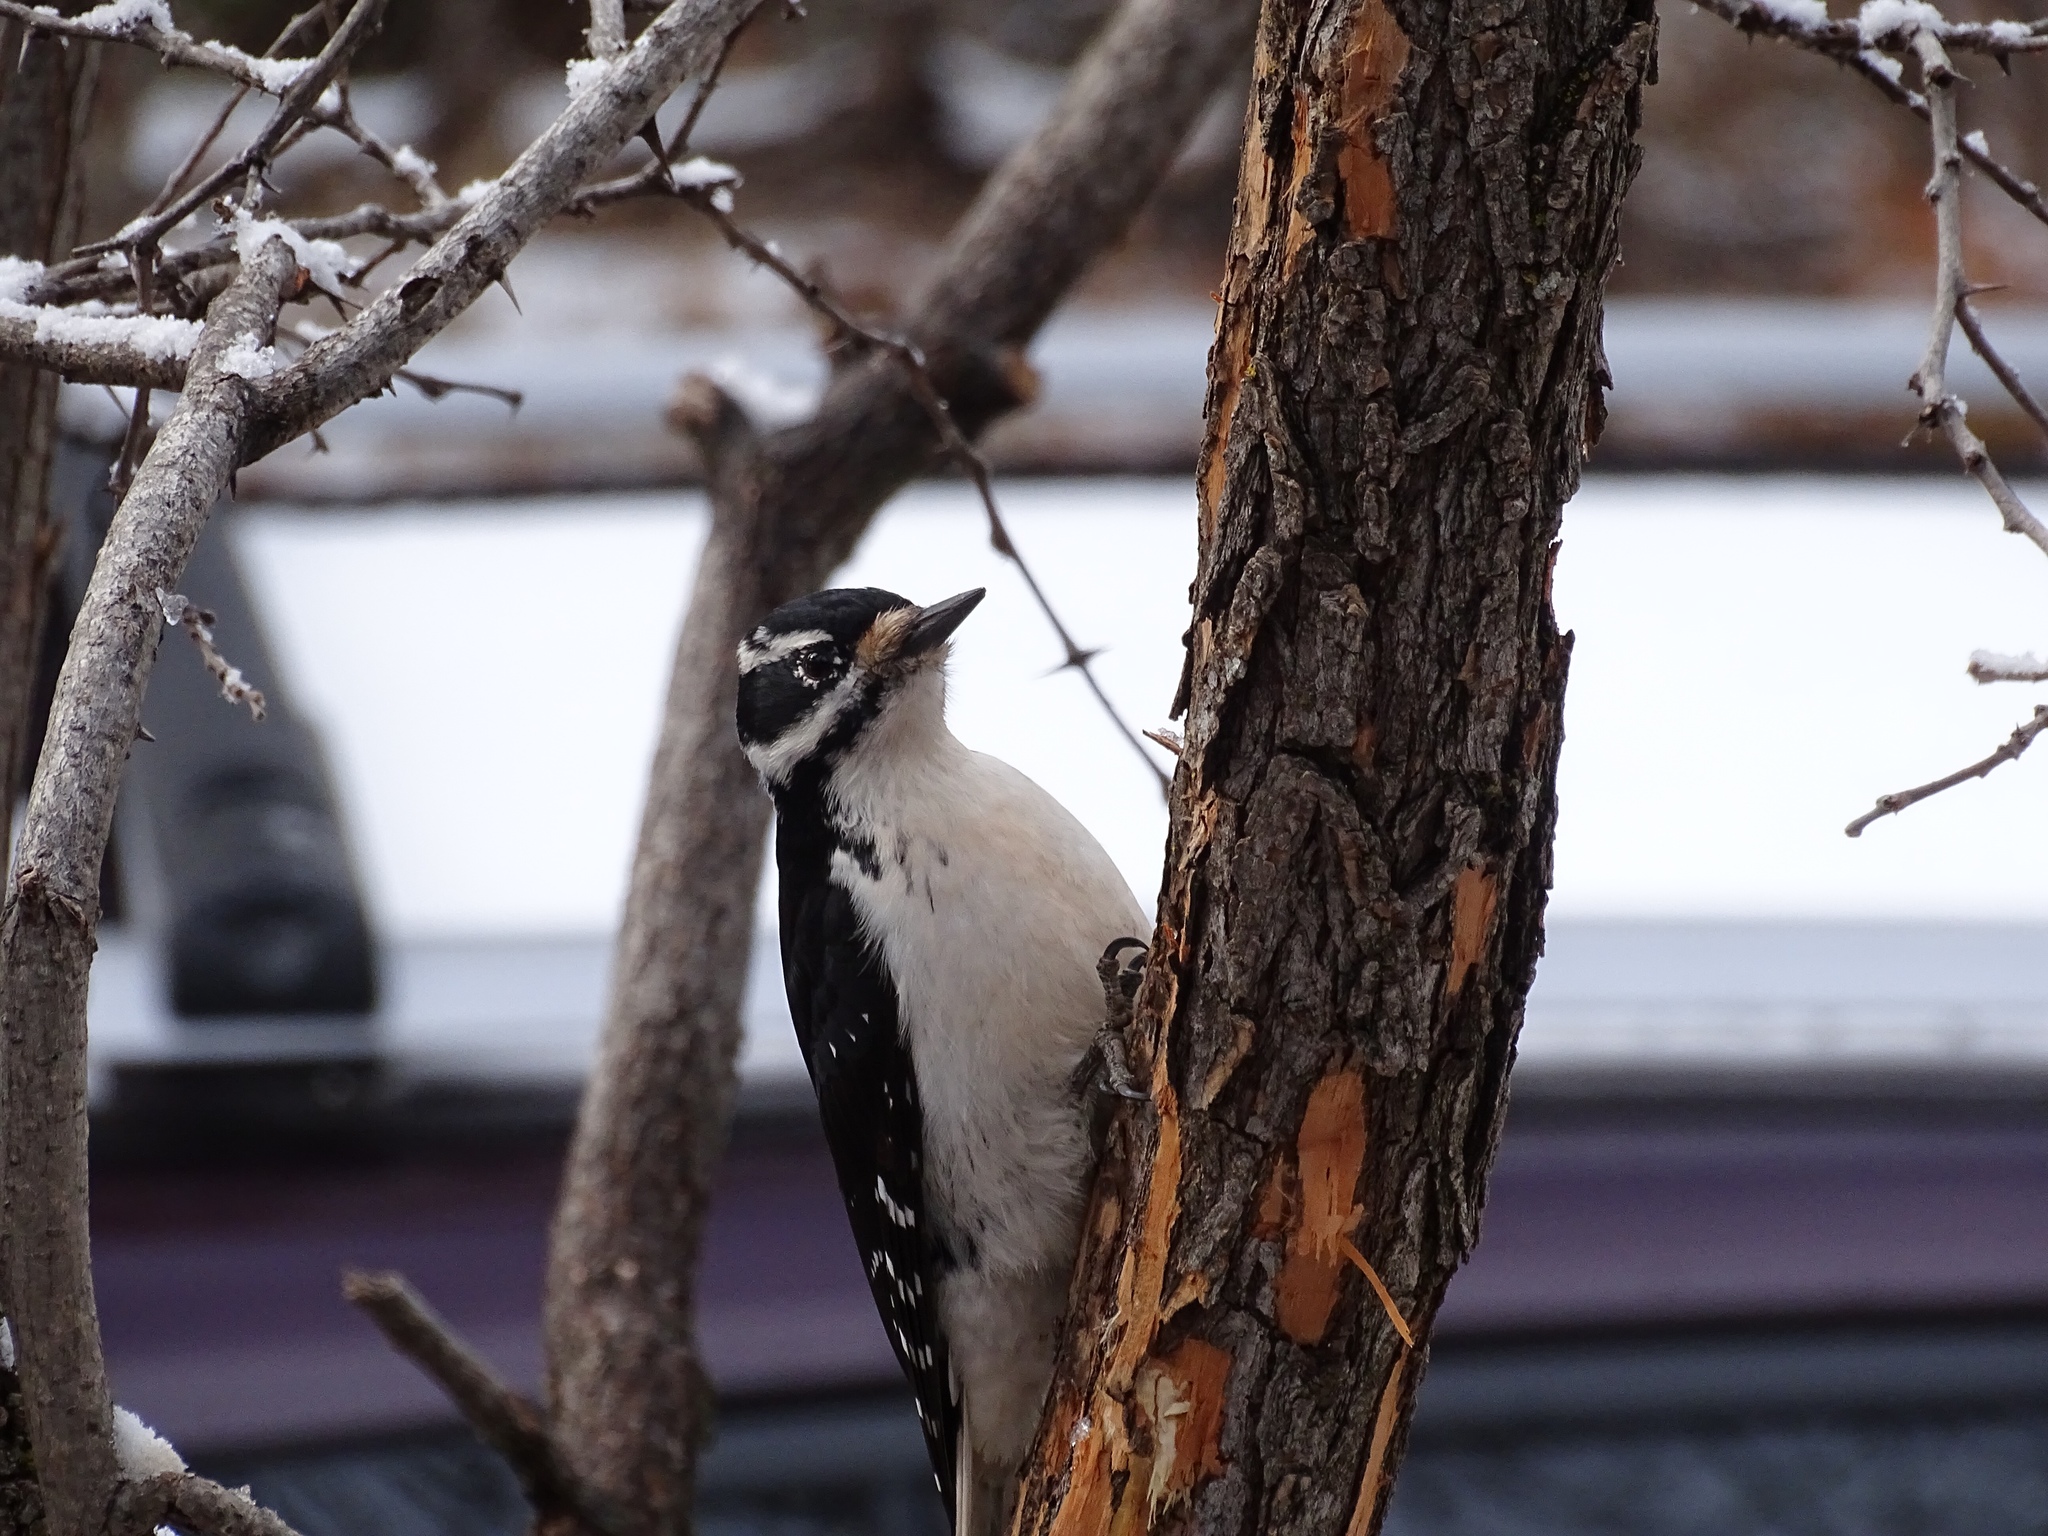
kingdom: Animalia
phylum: Chordata
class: Aves
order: Piciformes
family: Picidae
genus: Leuconotopicus
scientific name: Leuconotopicus villosus
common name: Hairy woodpecker
